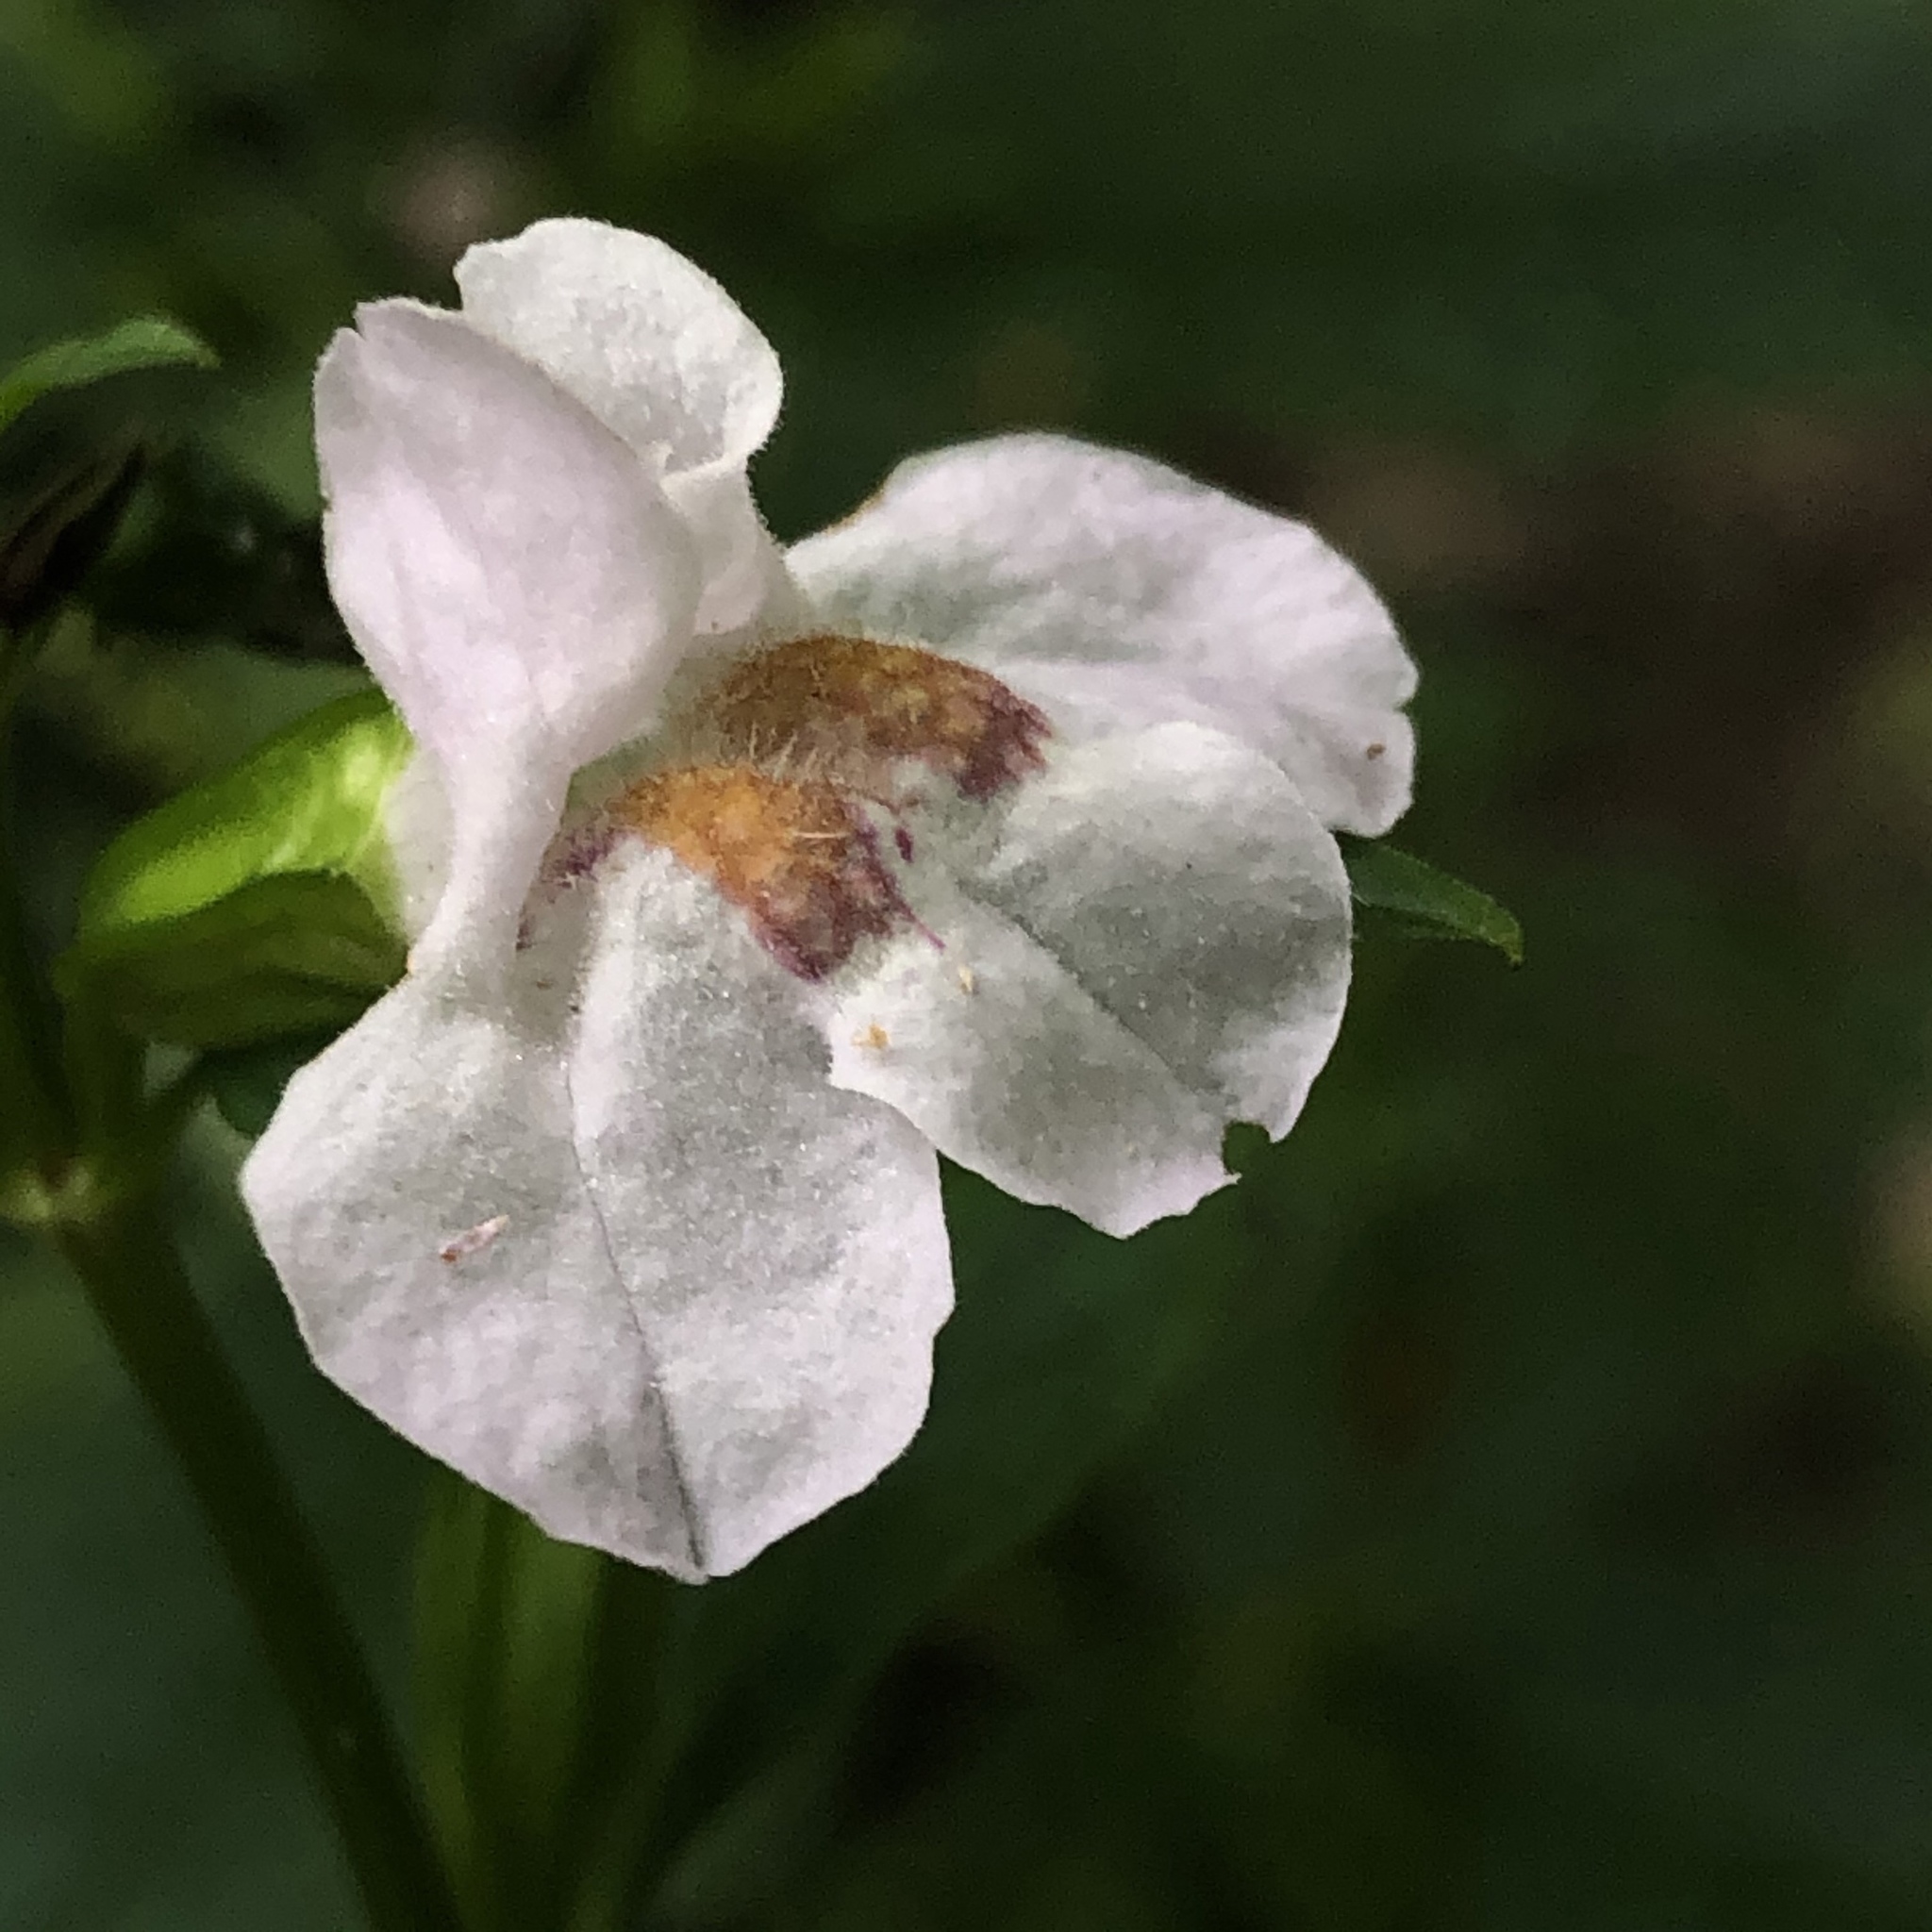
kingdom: Plantae
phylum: Tracheophyta
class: Magnoliopsida
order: Lamiales
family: Phrymaceae
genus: Mimulus
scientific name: Mimulus alatus
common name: Sharp-wing monkey-flower
